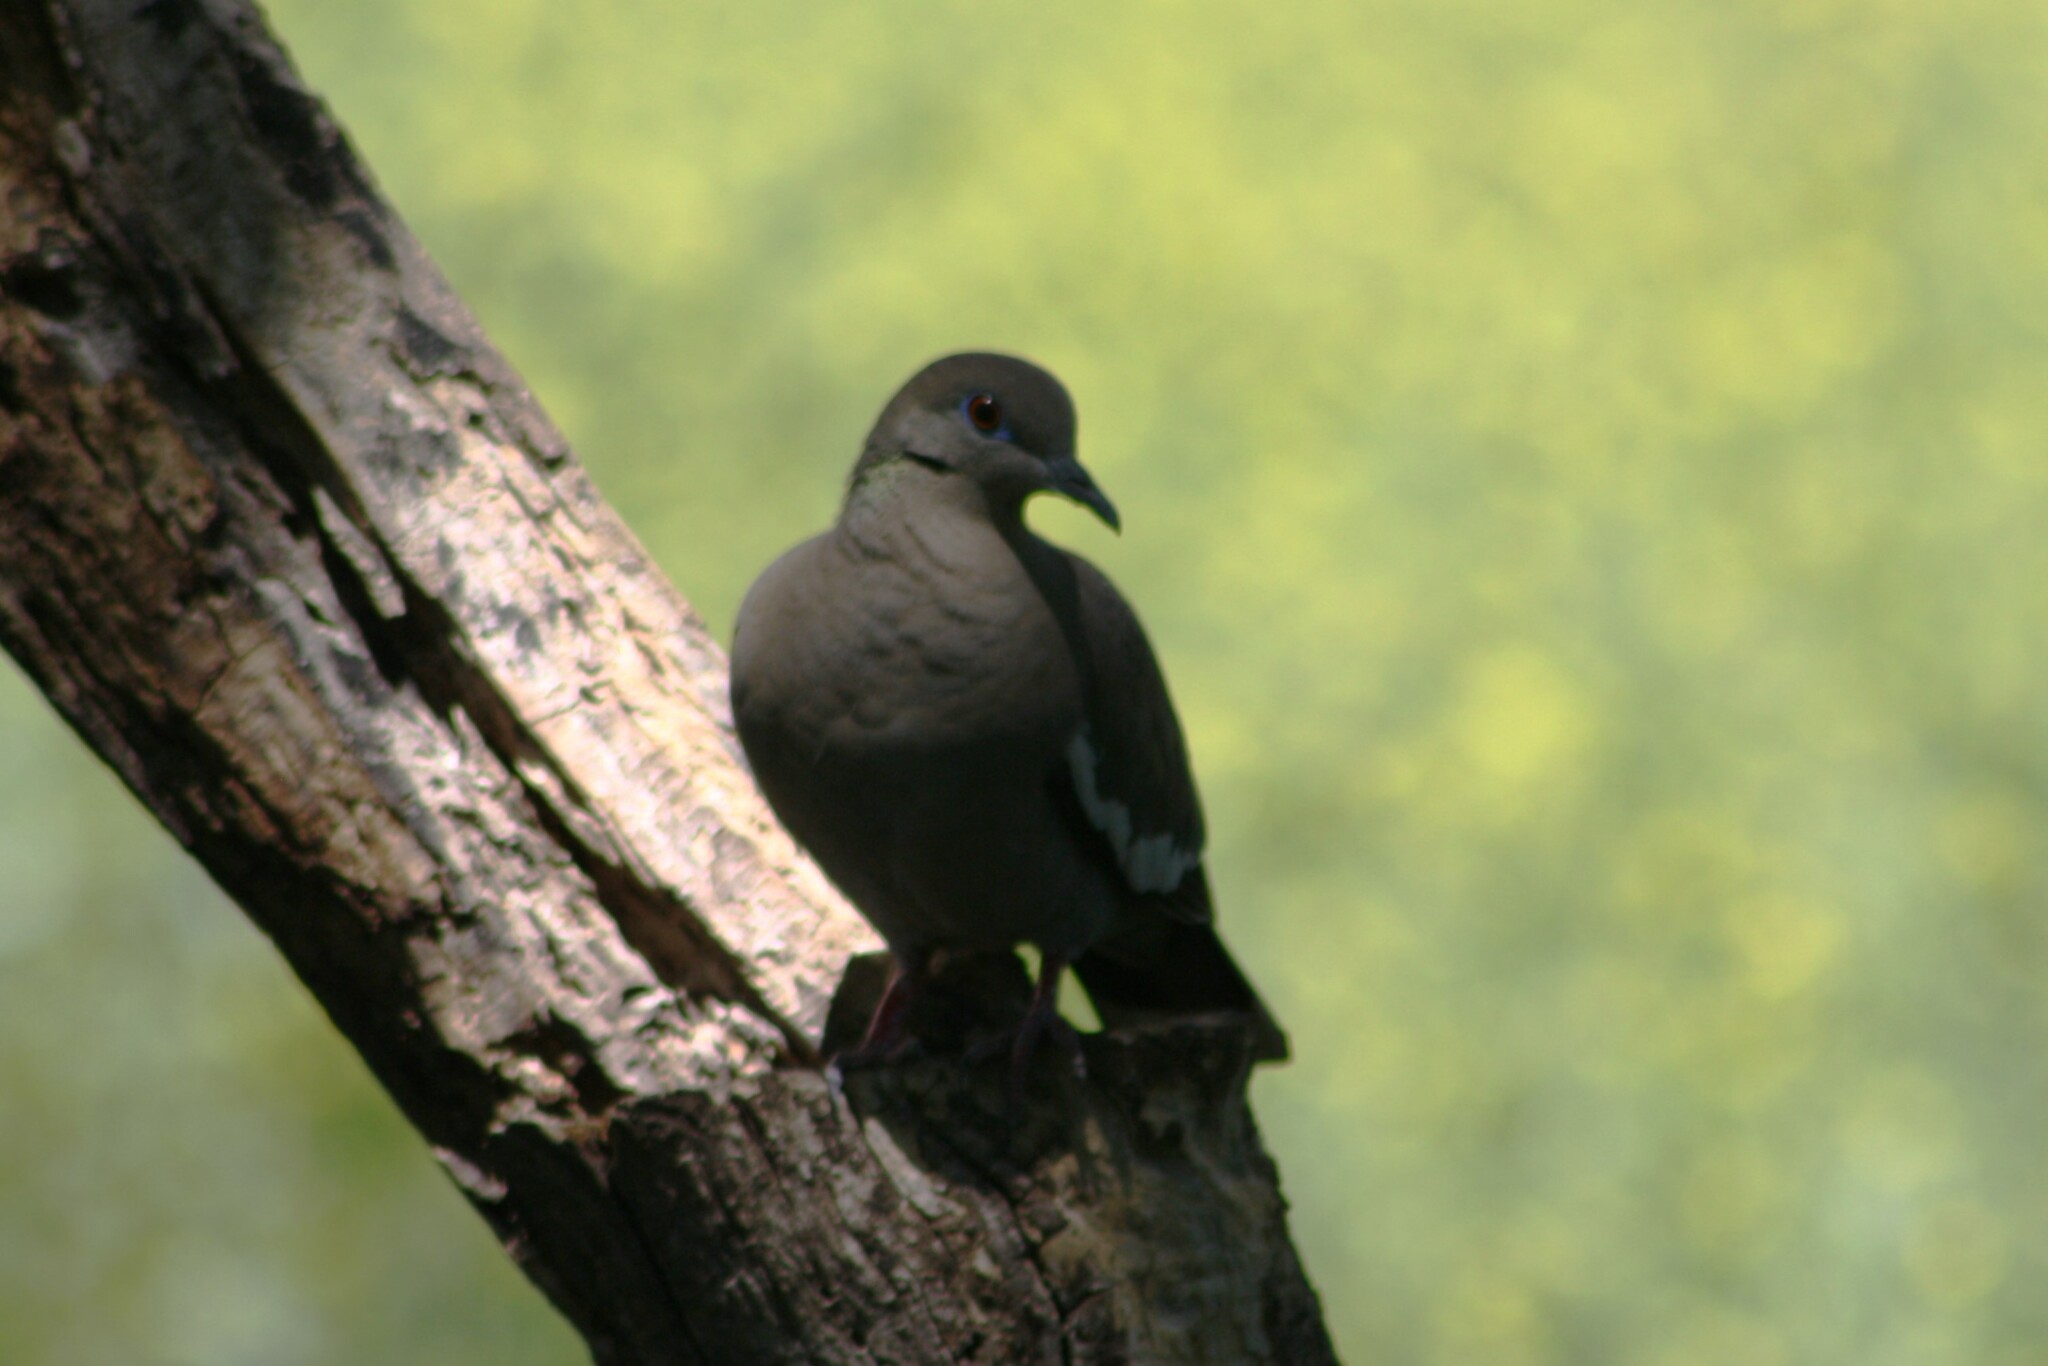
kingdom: Animalia
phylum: Chordata
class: Aves
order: Columbiformes
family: Columbidae
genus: Zenaida
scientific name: Zenaida asiatica
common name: White-winged dove
